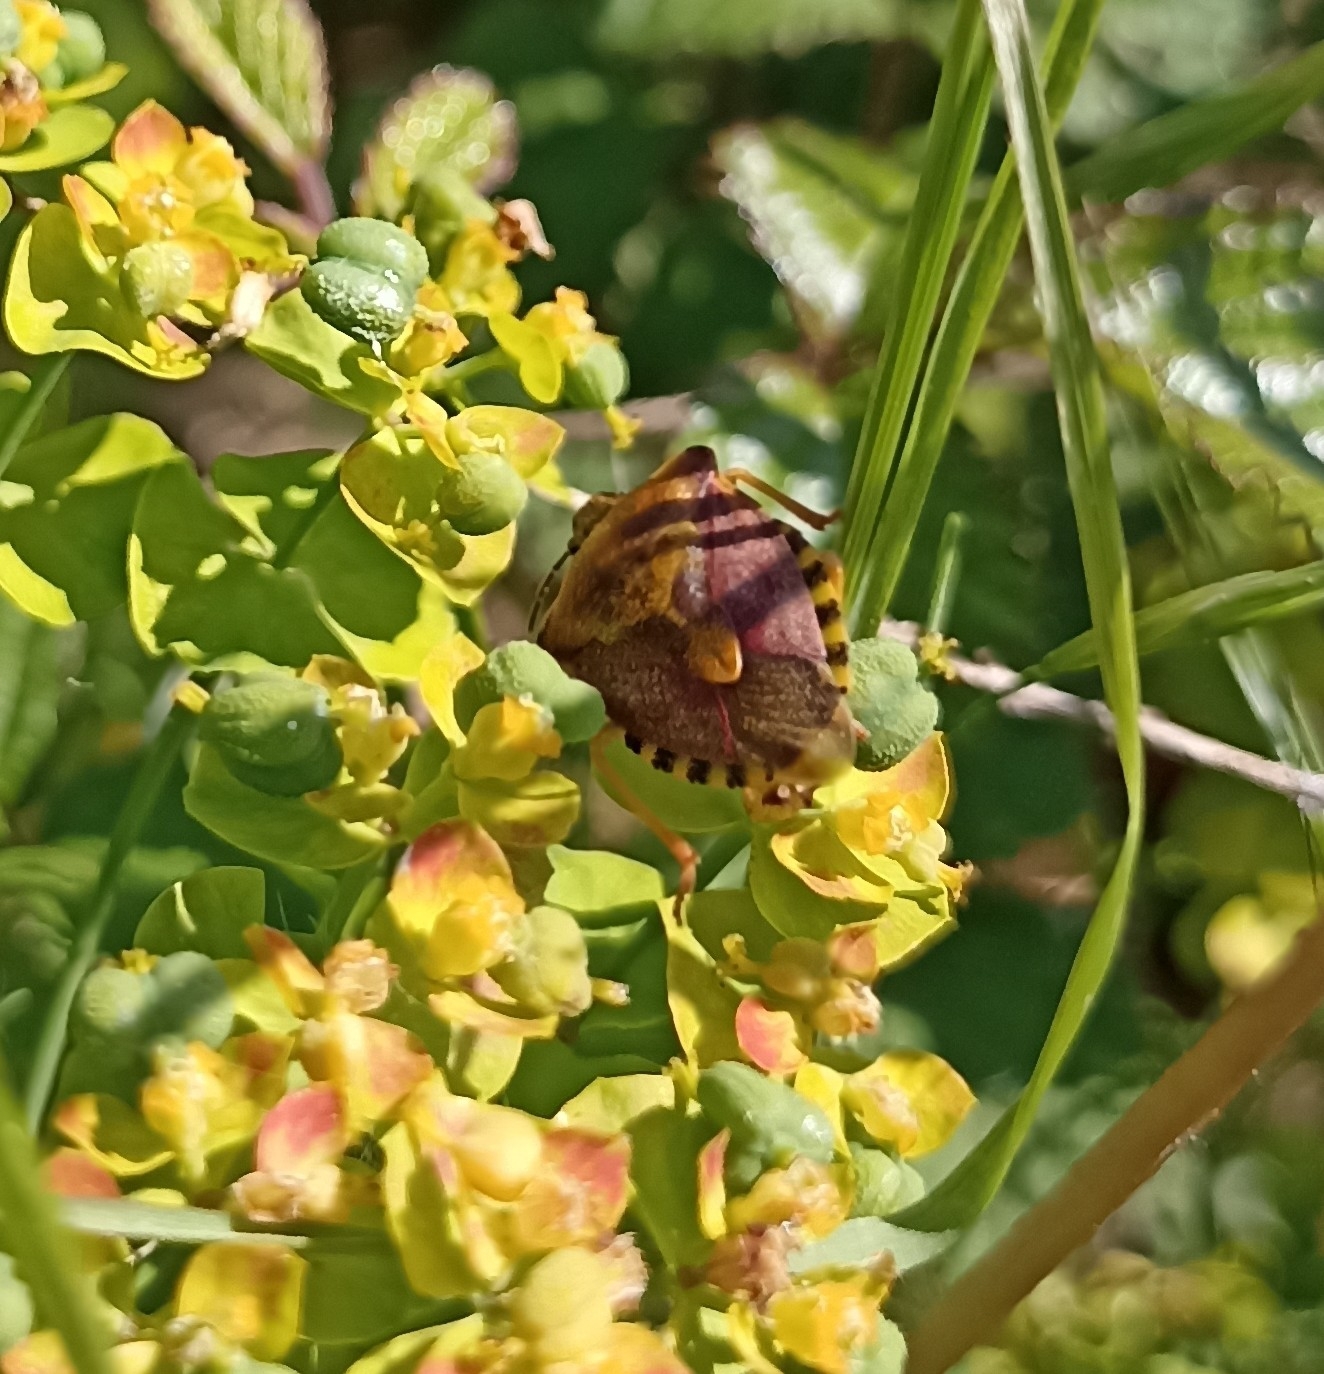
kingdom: Animalia
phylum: Arthropoda
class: Insecta
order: Hemiptera
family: Pentatomidae
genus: Carpocoris
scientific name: Carpocoris purpureipennis
